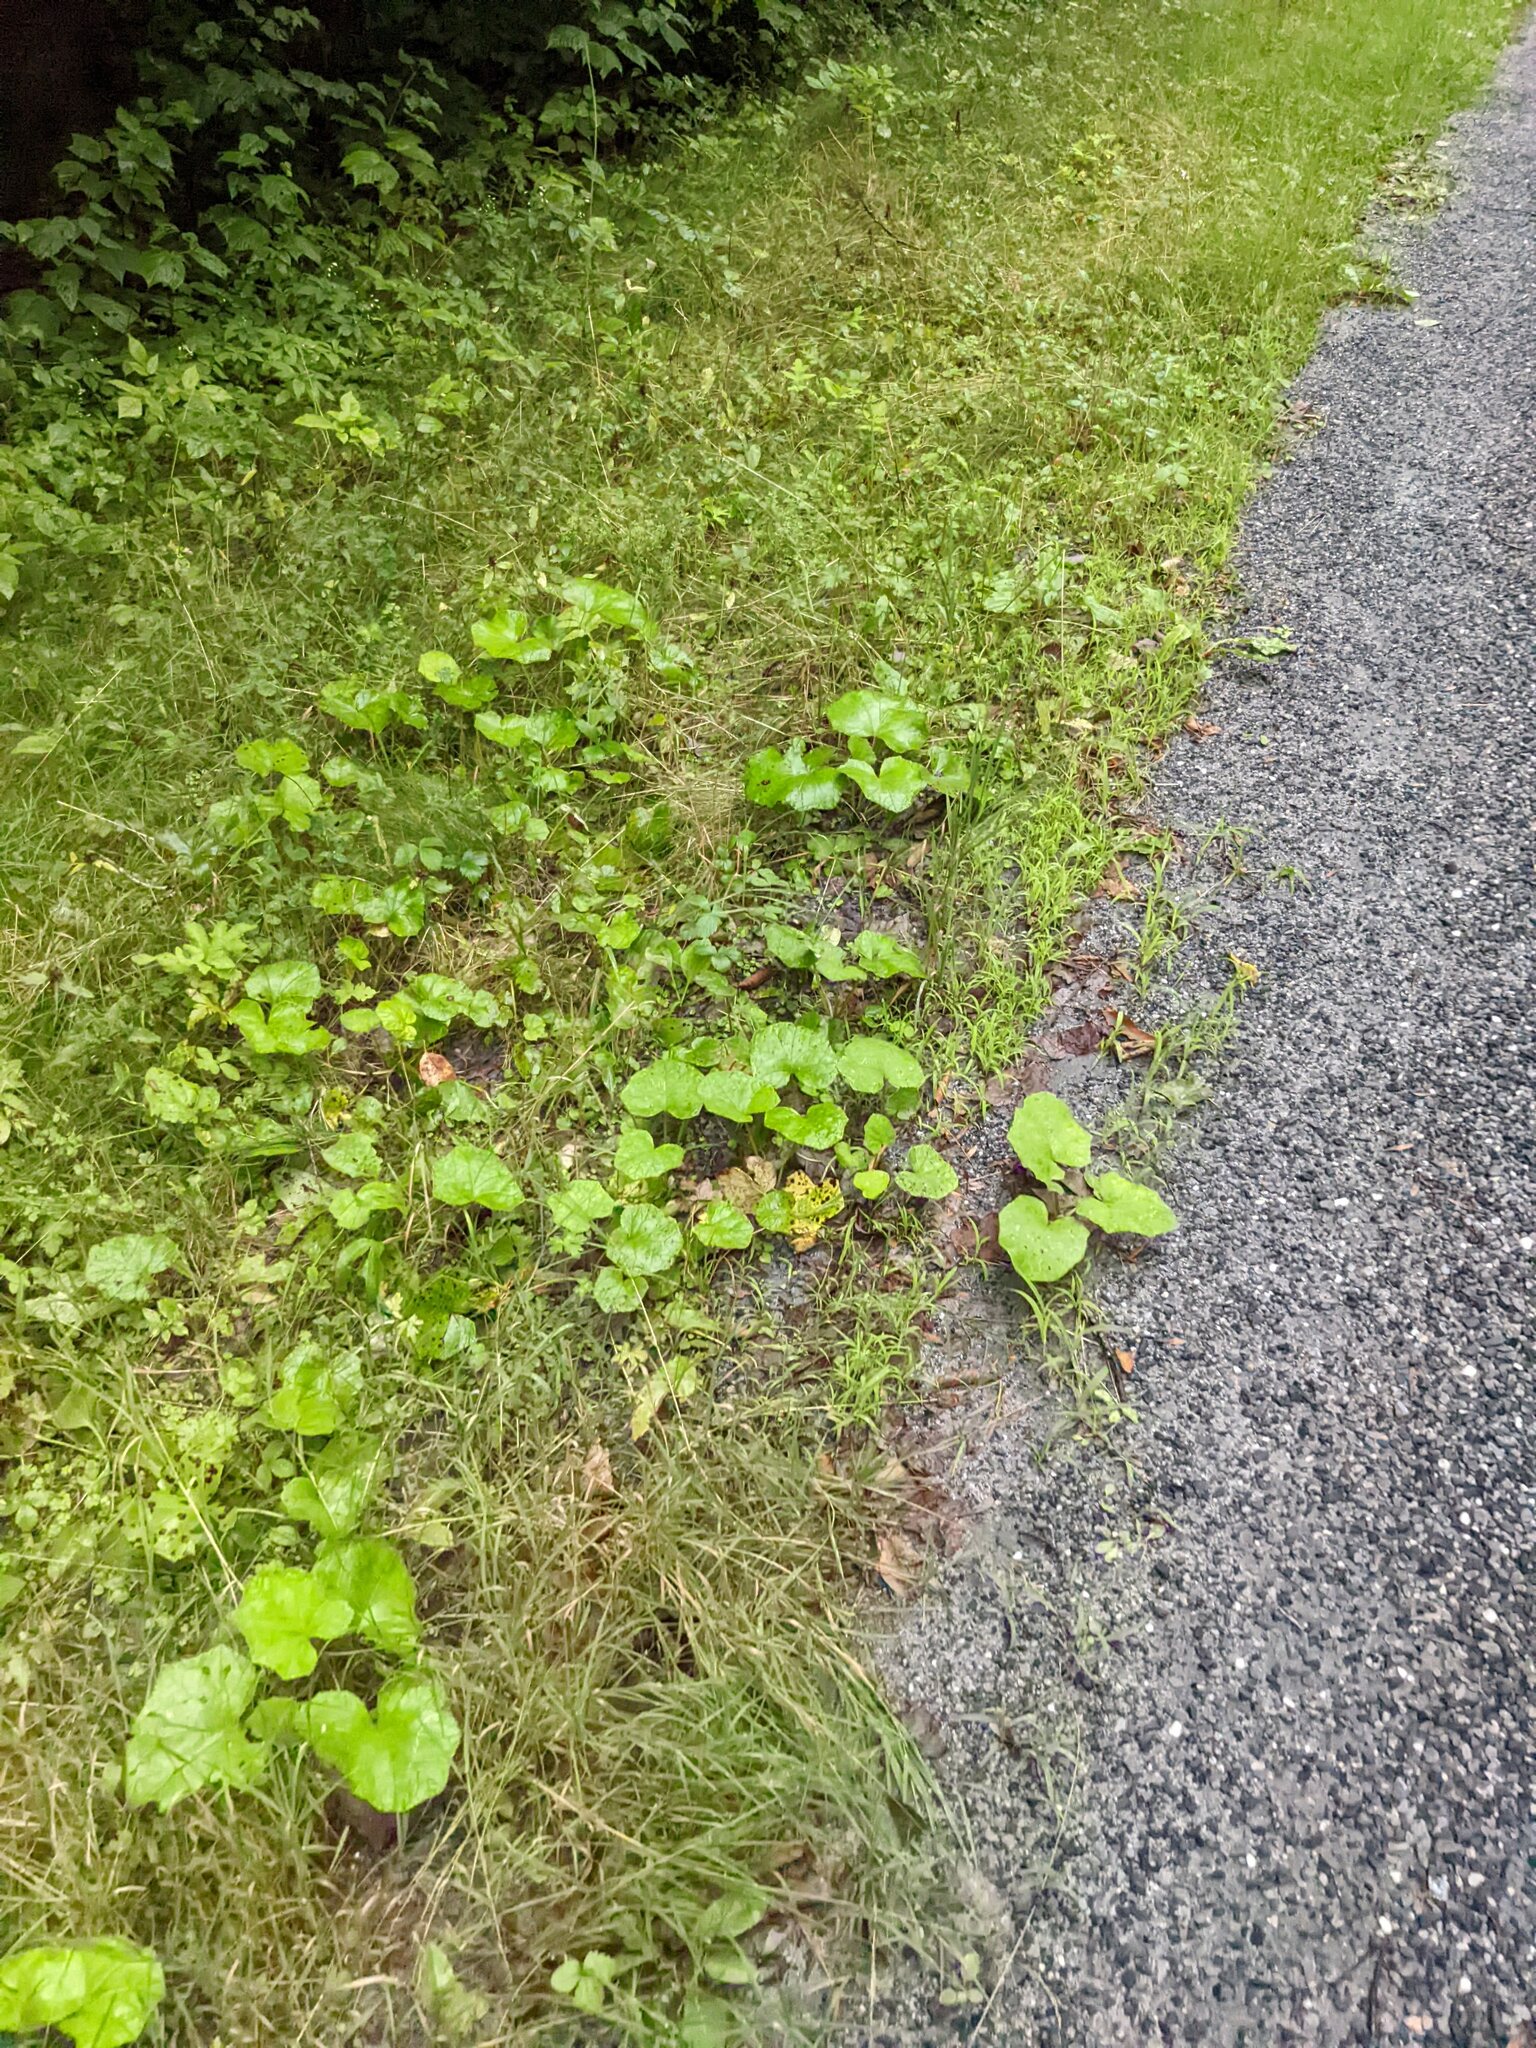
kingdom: Plantae
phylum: Tracheophyta
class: Magnoliopsida
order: Asterales
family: Asteraceae
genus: Tussilago
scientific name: Tussilago farfara
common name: Coltsfoot
